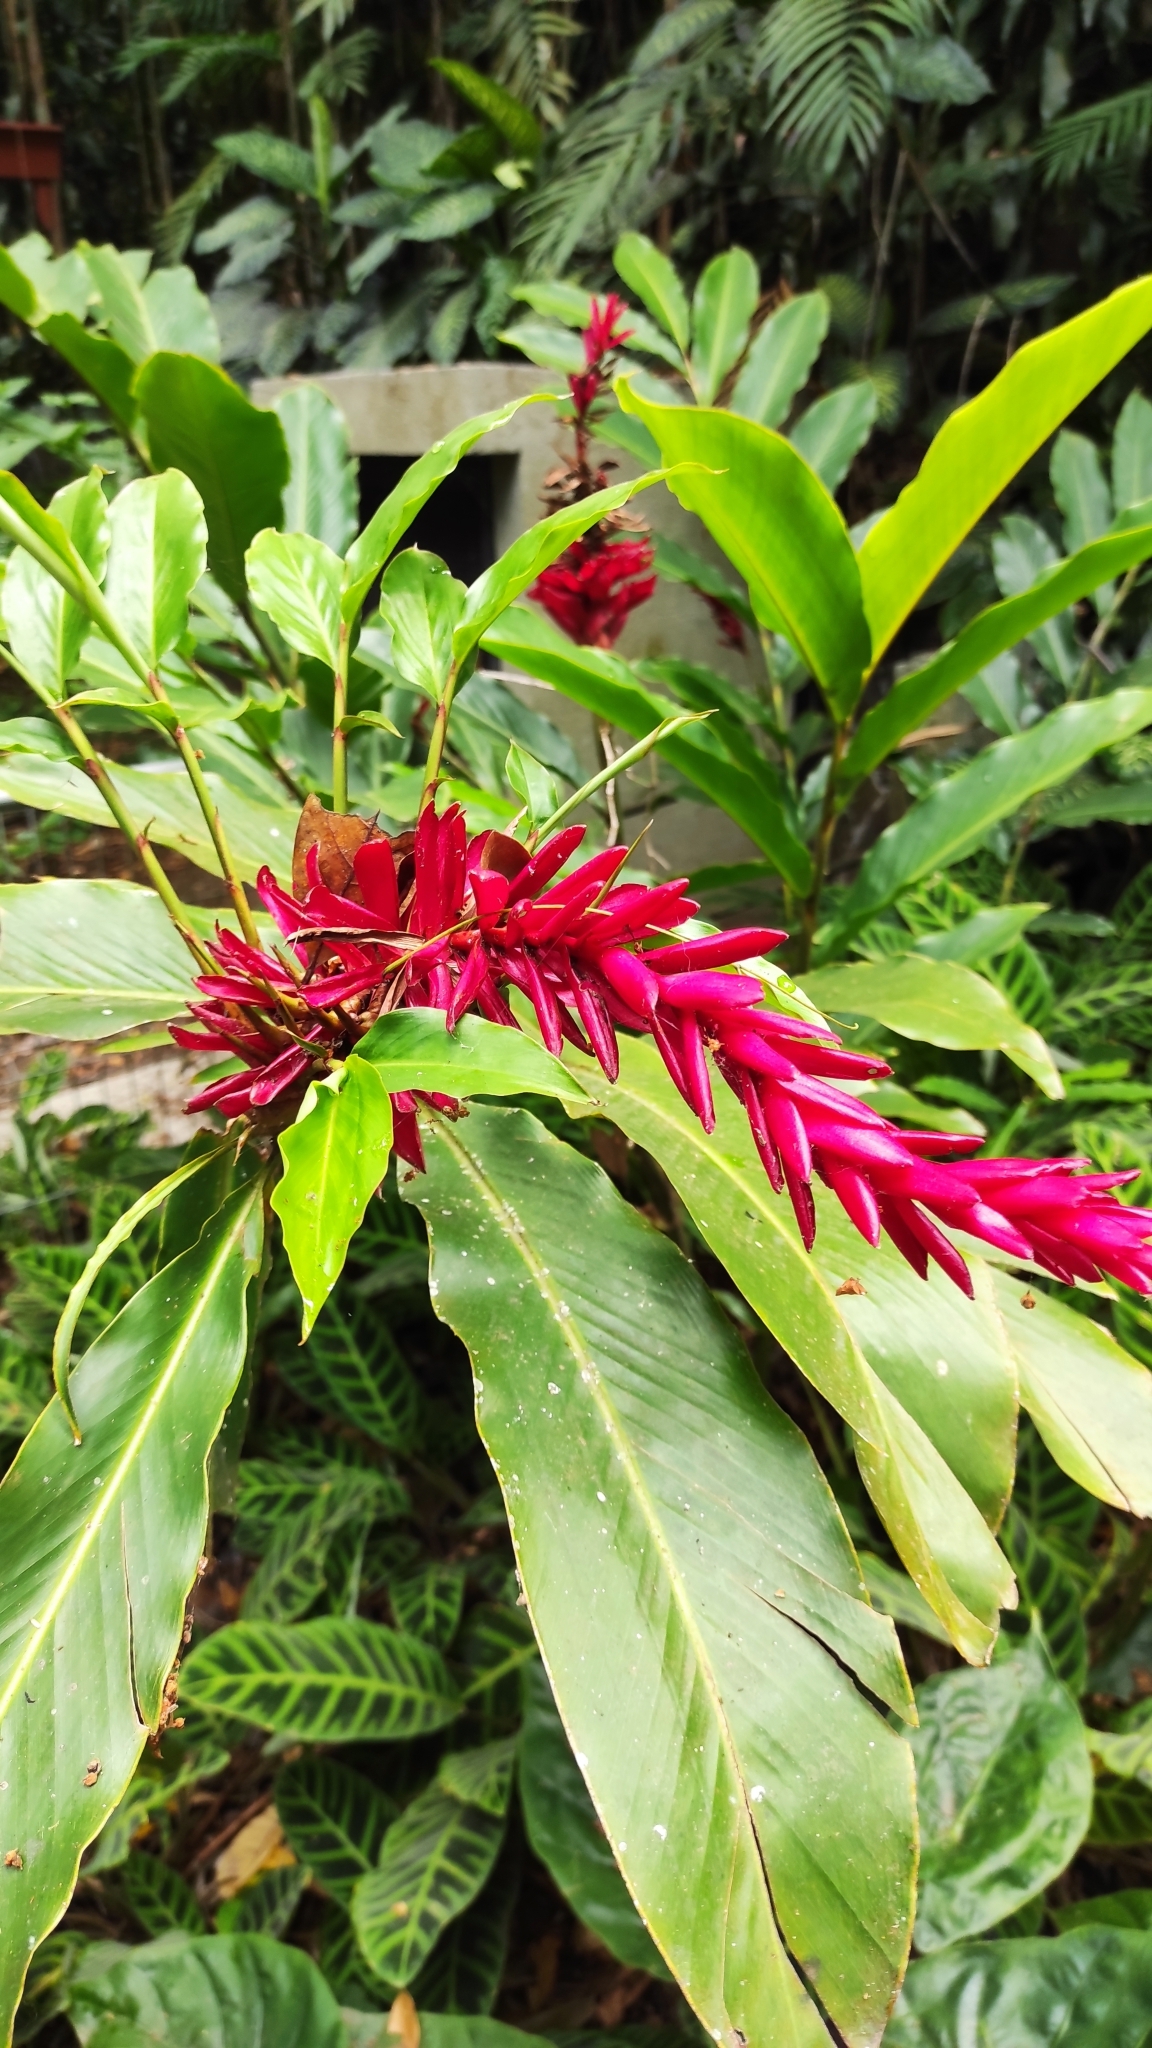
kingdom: Plantae
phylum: Tracheophyta
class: Liliopsida
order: Zingiberales
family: Zingiberaceae
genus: Alpinia
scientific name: Alpinia purpurata
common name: Red ginger
